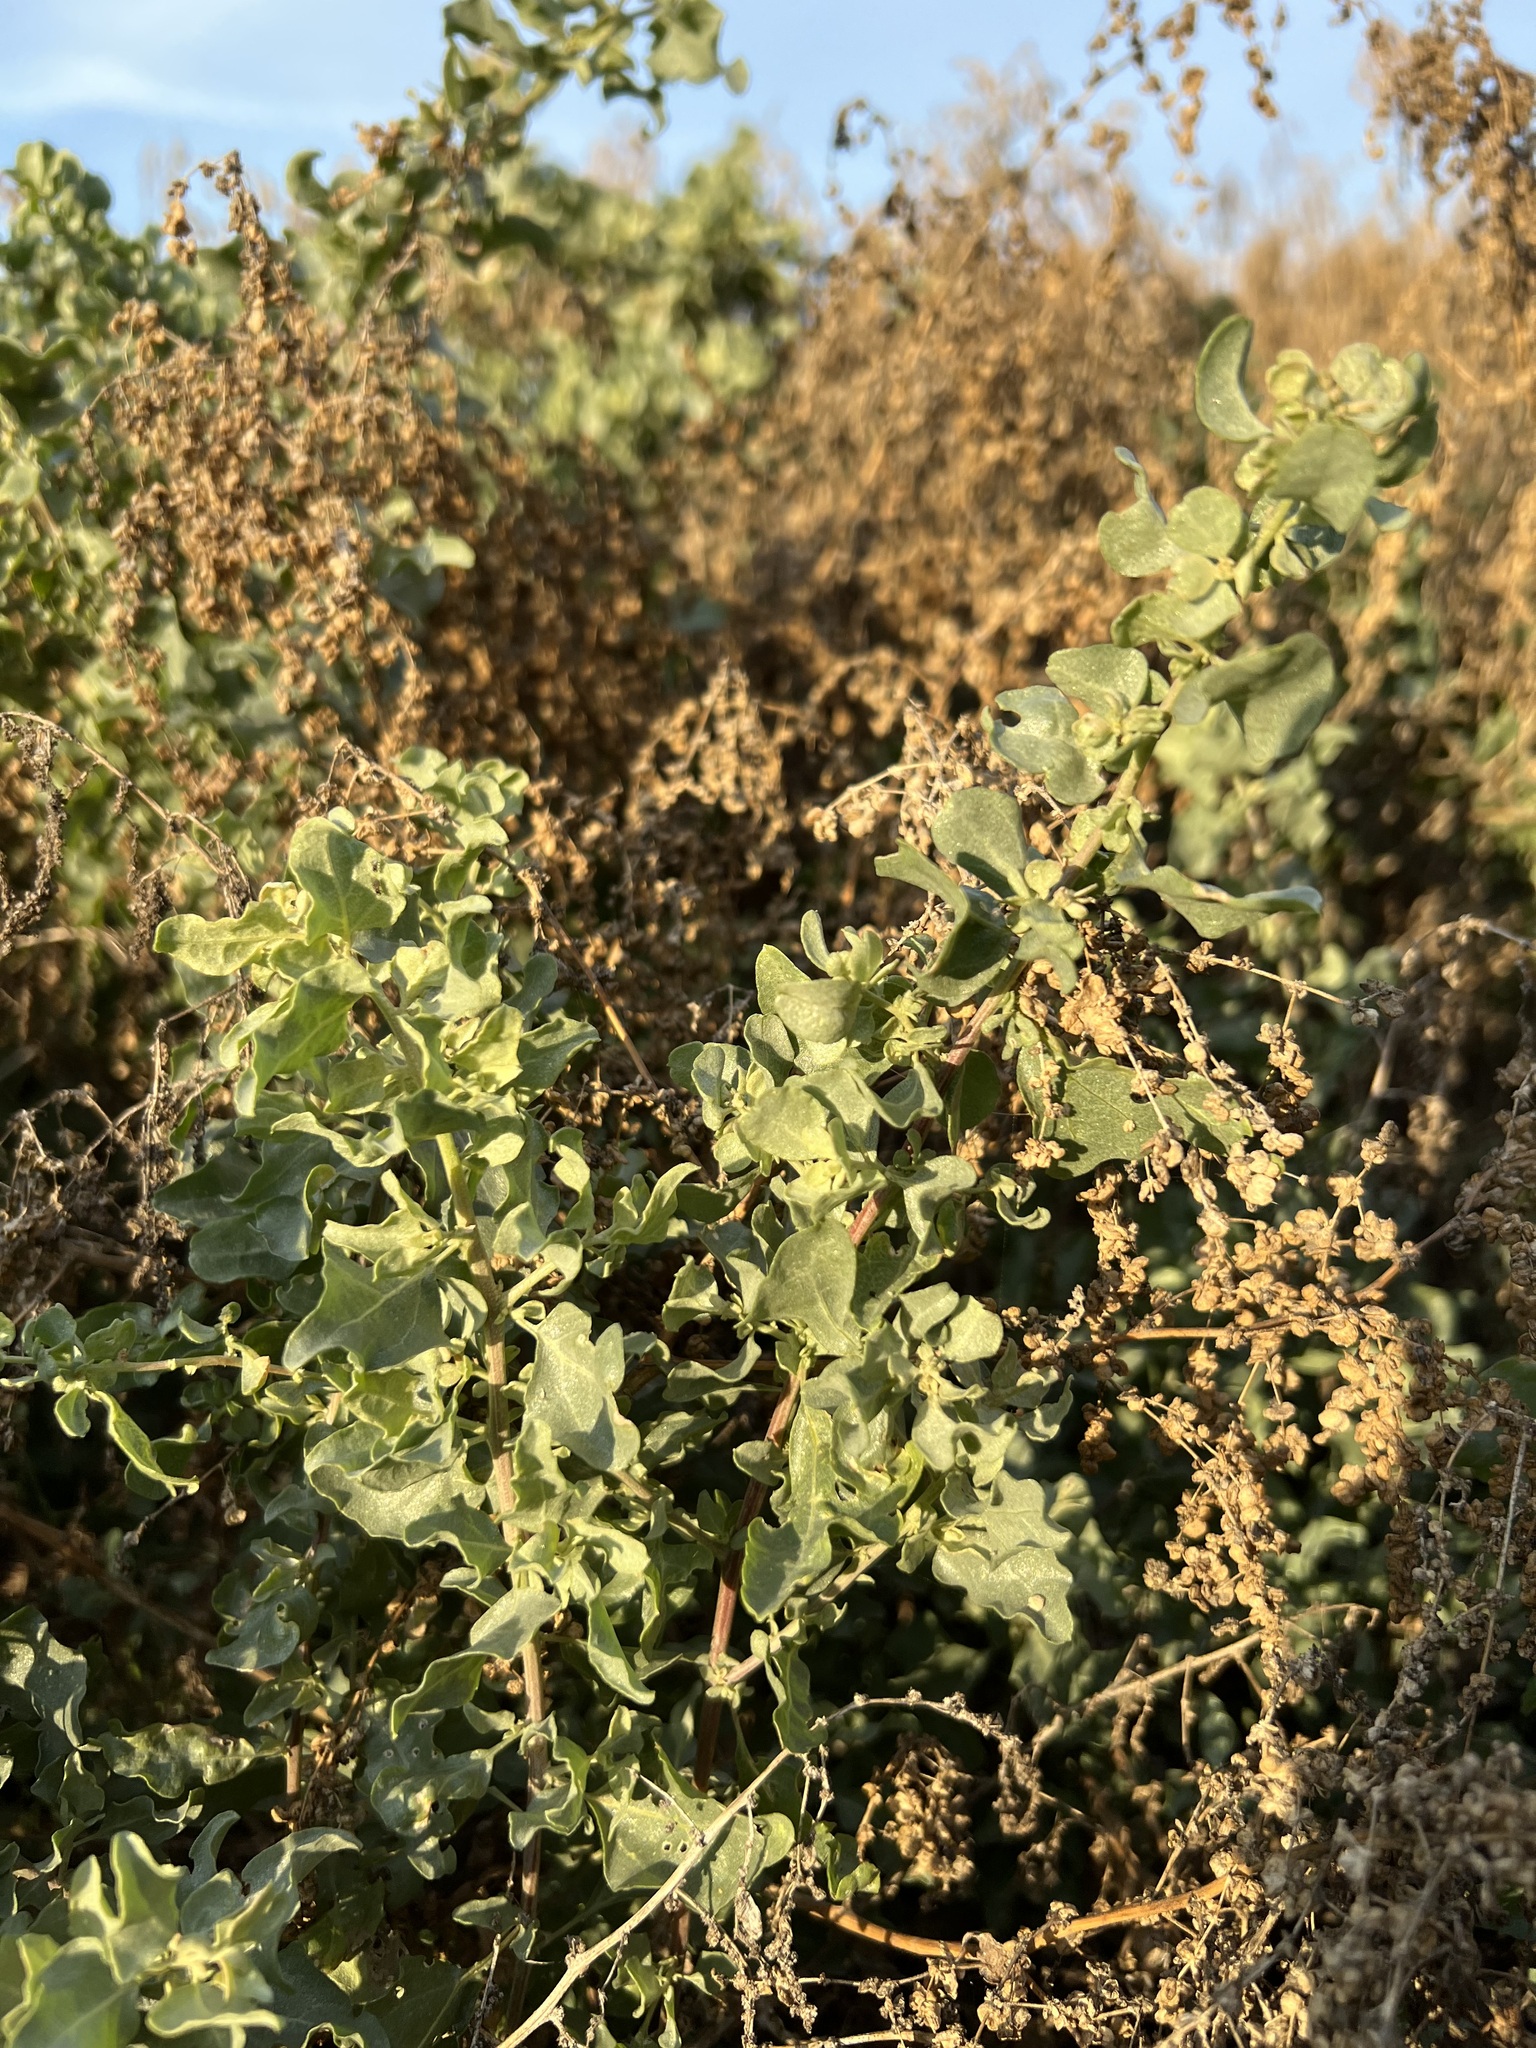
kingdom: Plantae
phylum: Tracheophyta
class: Magnoliopsida
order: Caryophyllales
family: Amaranthaceae
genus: Atriplex
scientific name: Atriplex lentiformis
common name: Big saltbush
